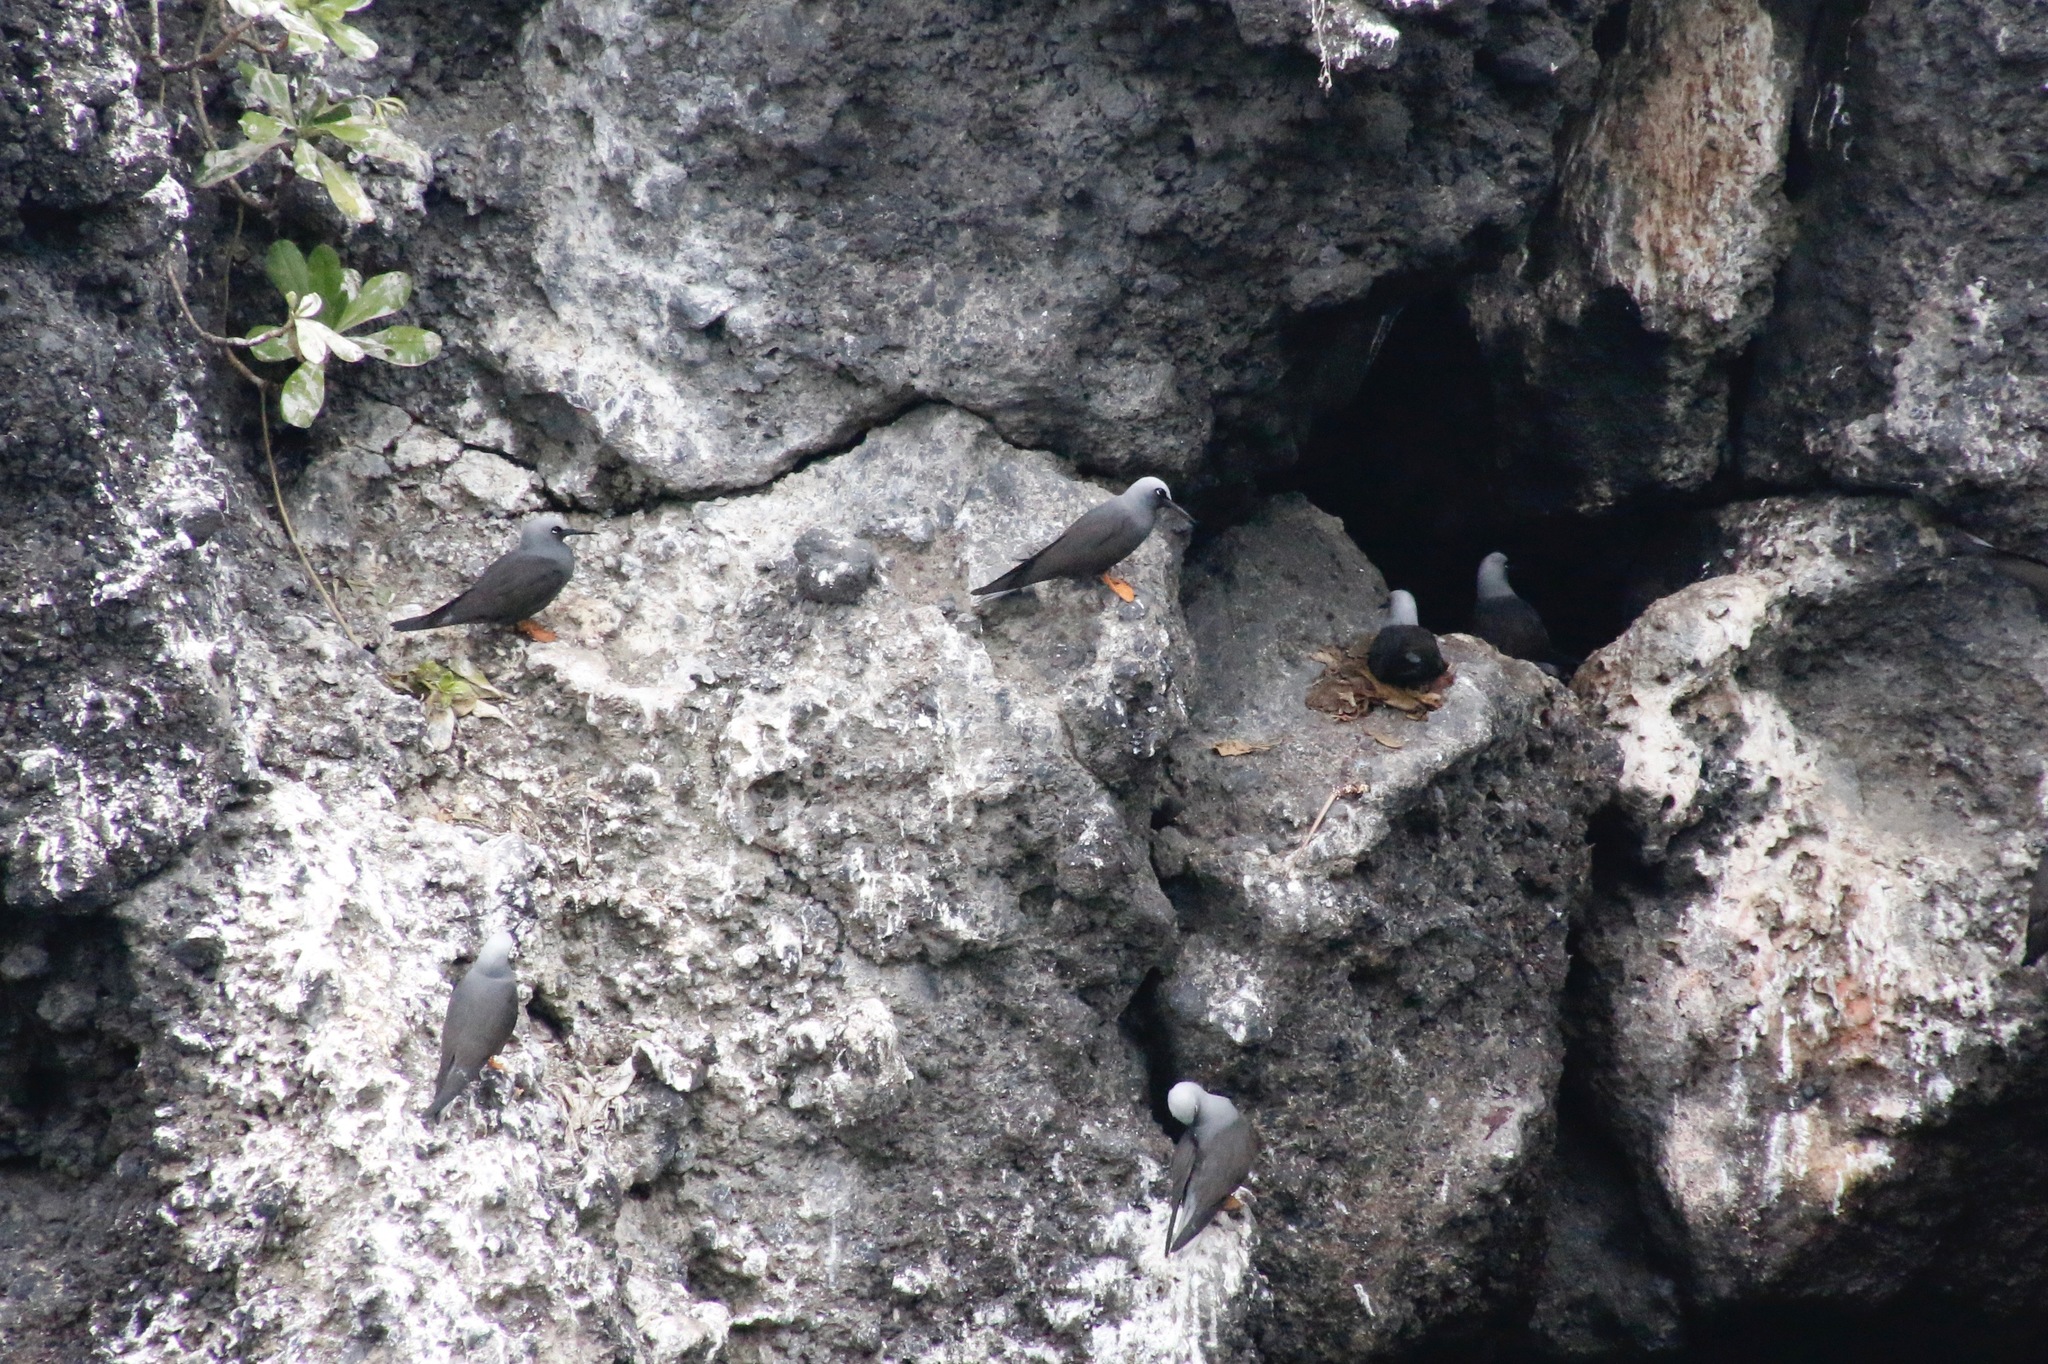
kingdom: Animalia
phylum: Chordata
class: Aves
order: Charadriiformes
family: Laridae
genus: Anous
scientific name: Anous minutus
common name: Black noddy
